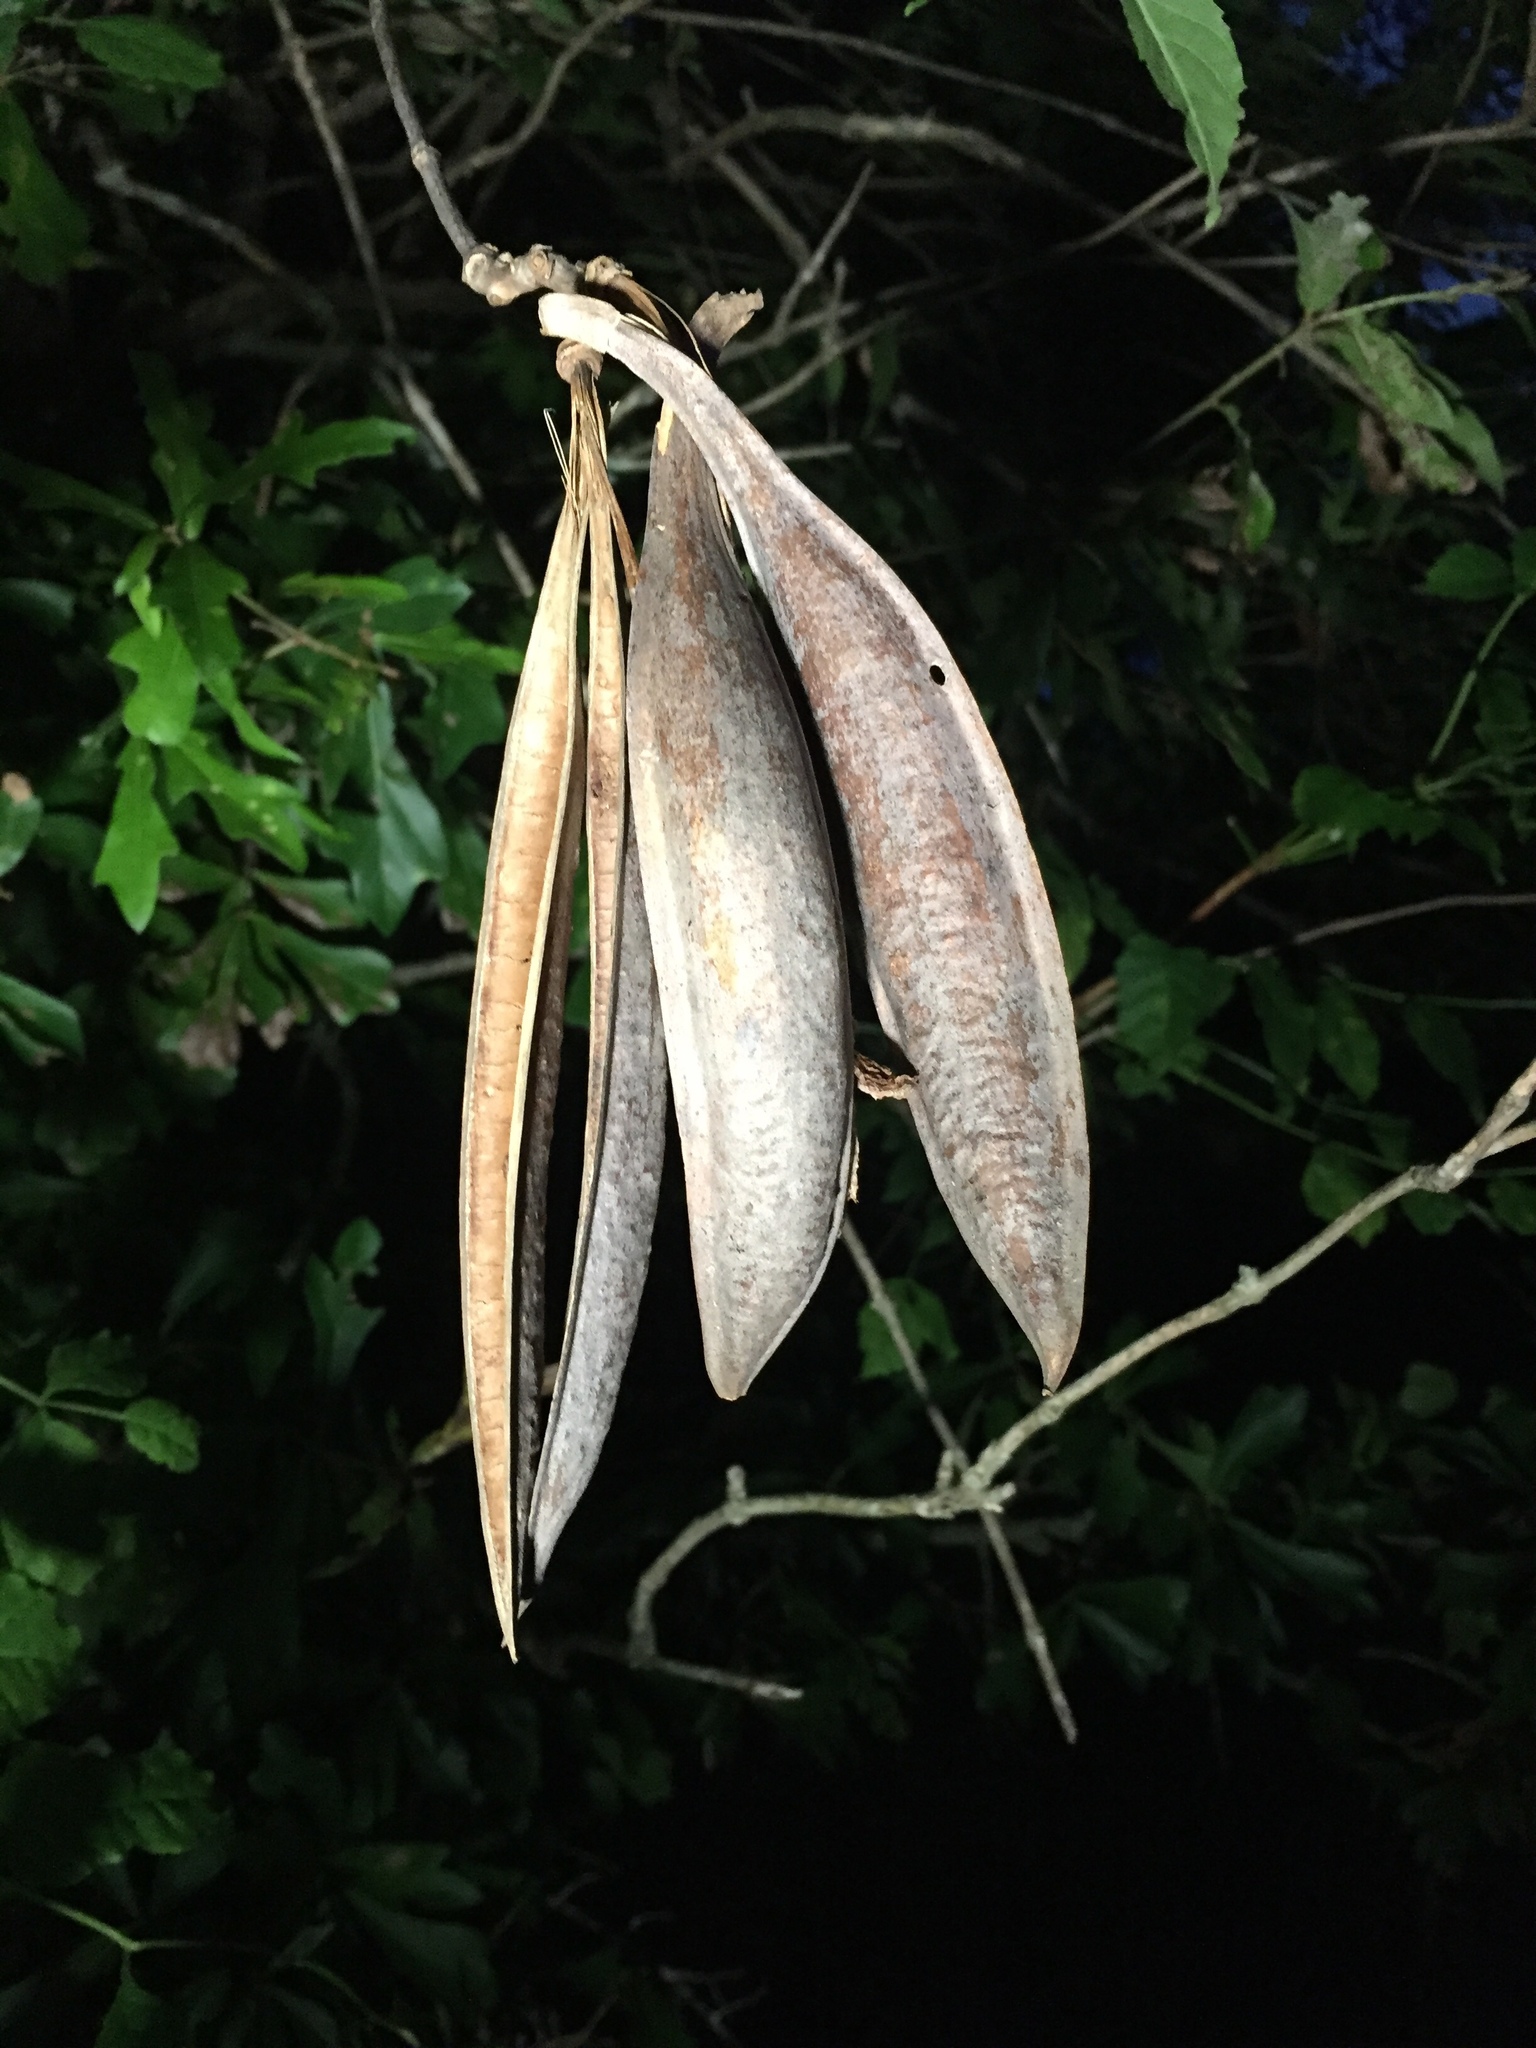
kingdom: Plantae
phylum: Tracheophyta
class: Magnoliopsida
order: Lamiales
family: Bignoniaceae
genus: Campsis
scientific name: Campsis radicans
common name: Trumpet-creeper
